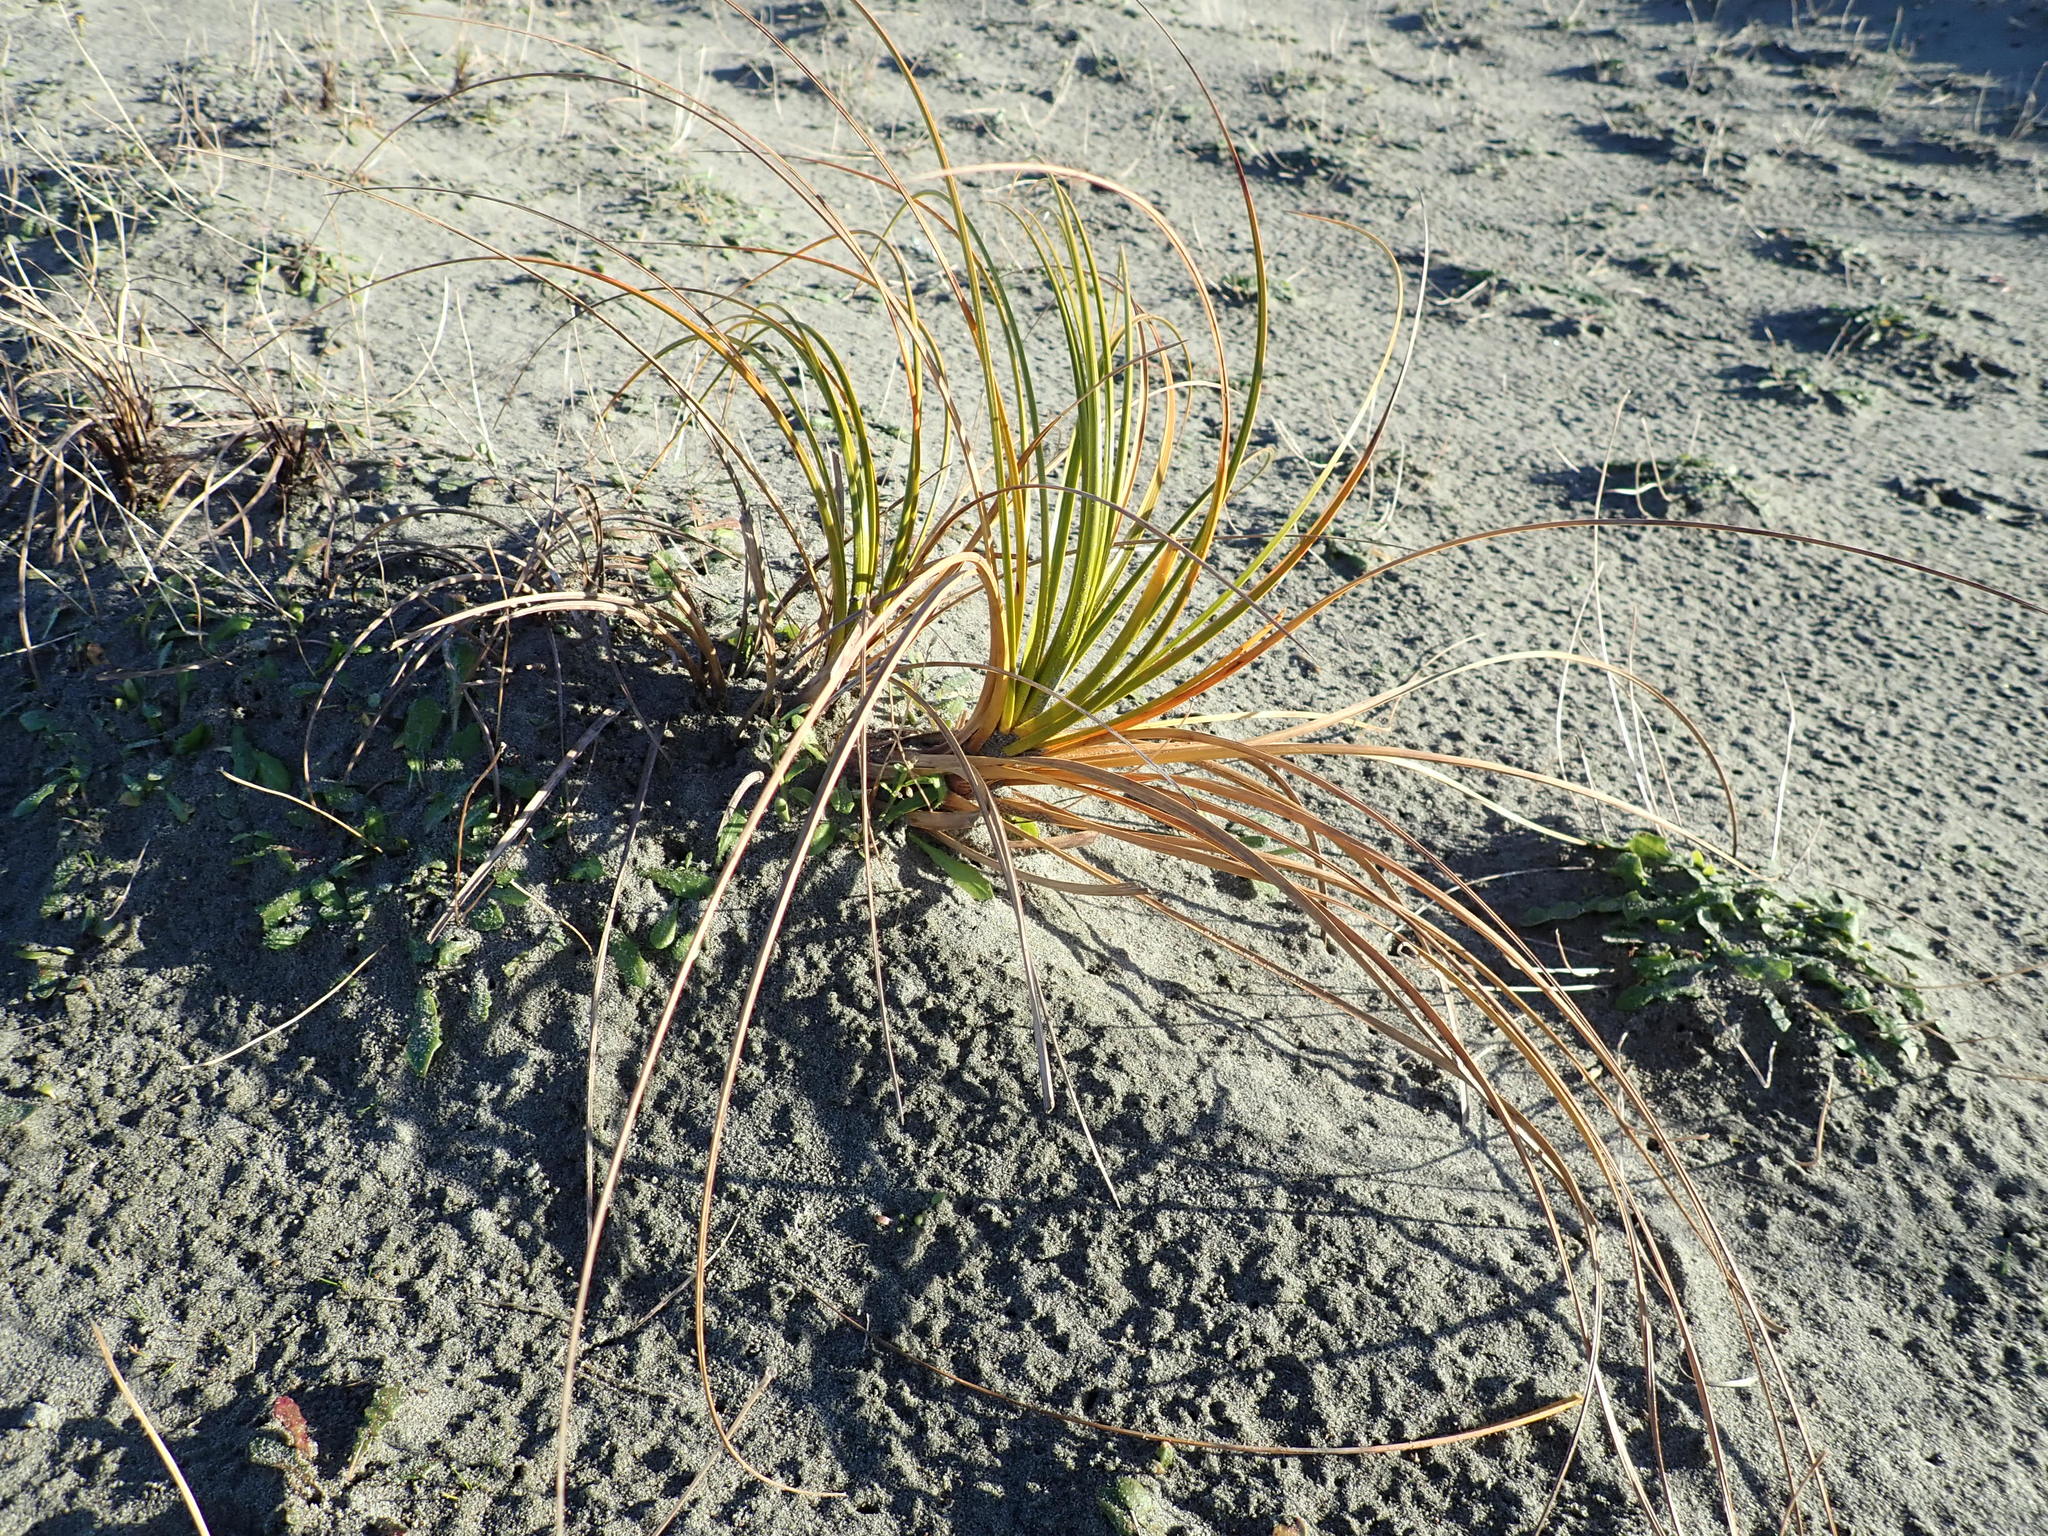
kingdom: Plantae
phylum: Tracheophyta
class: Liliopsida
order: Poales
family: Cyperaceae
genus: Ficinia
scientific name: Ficinia spiralis
